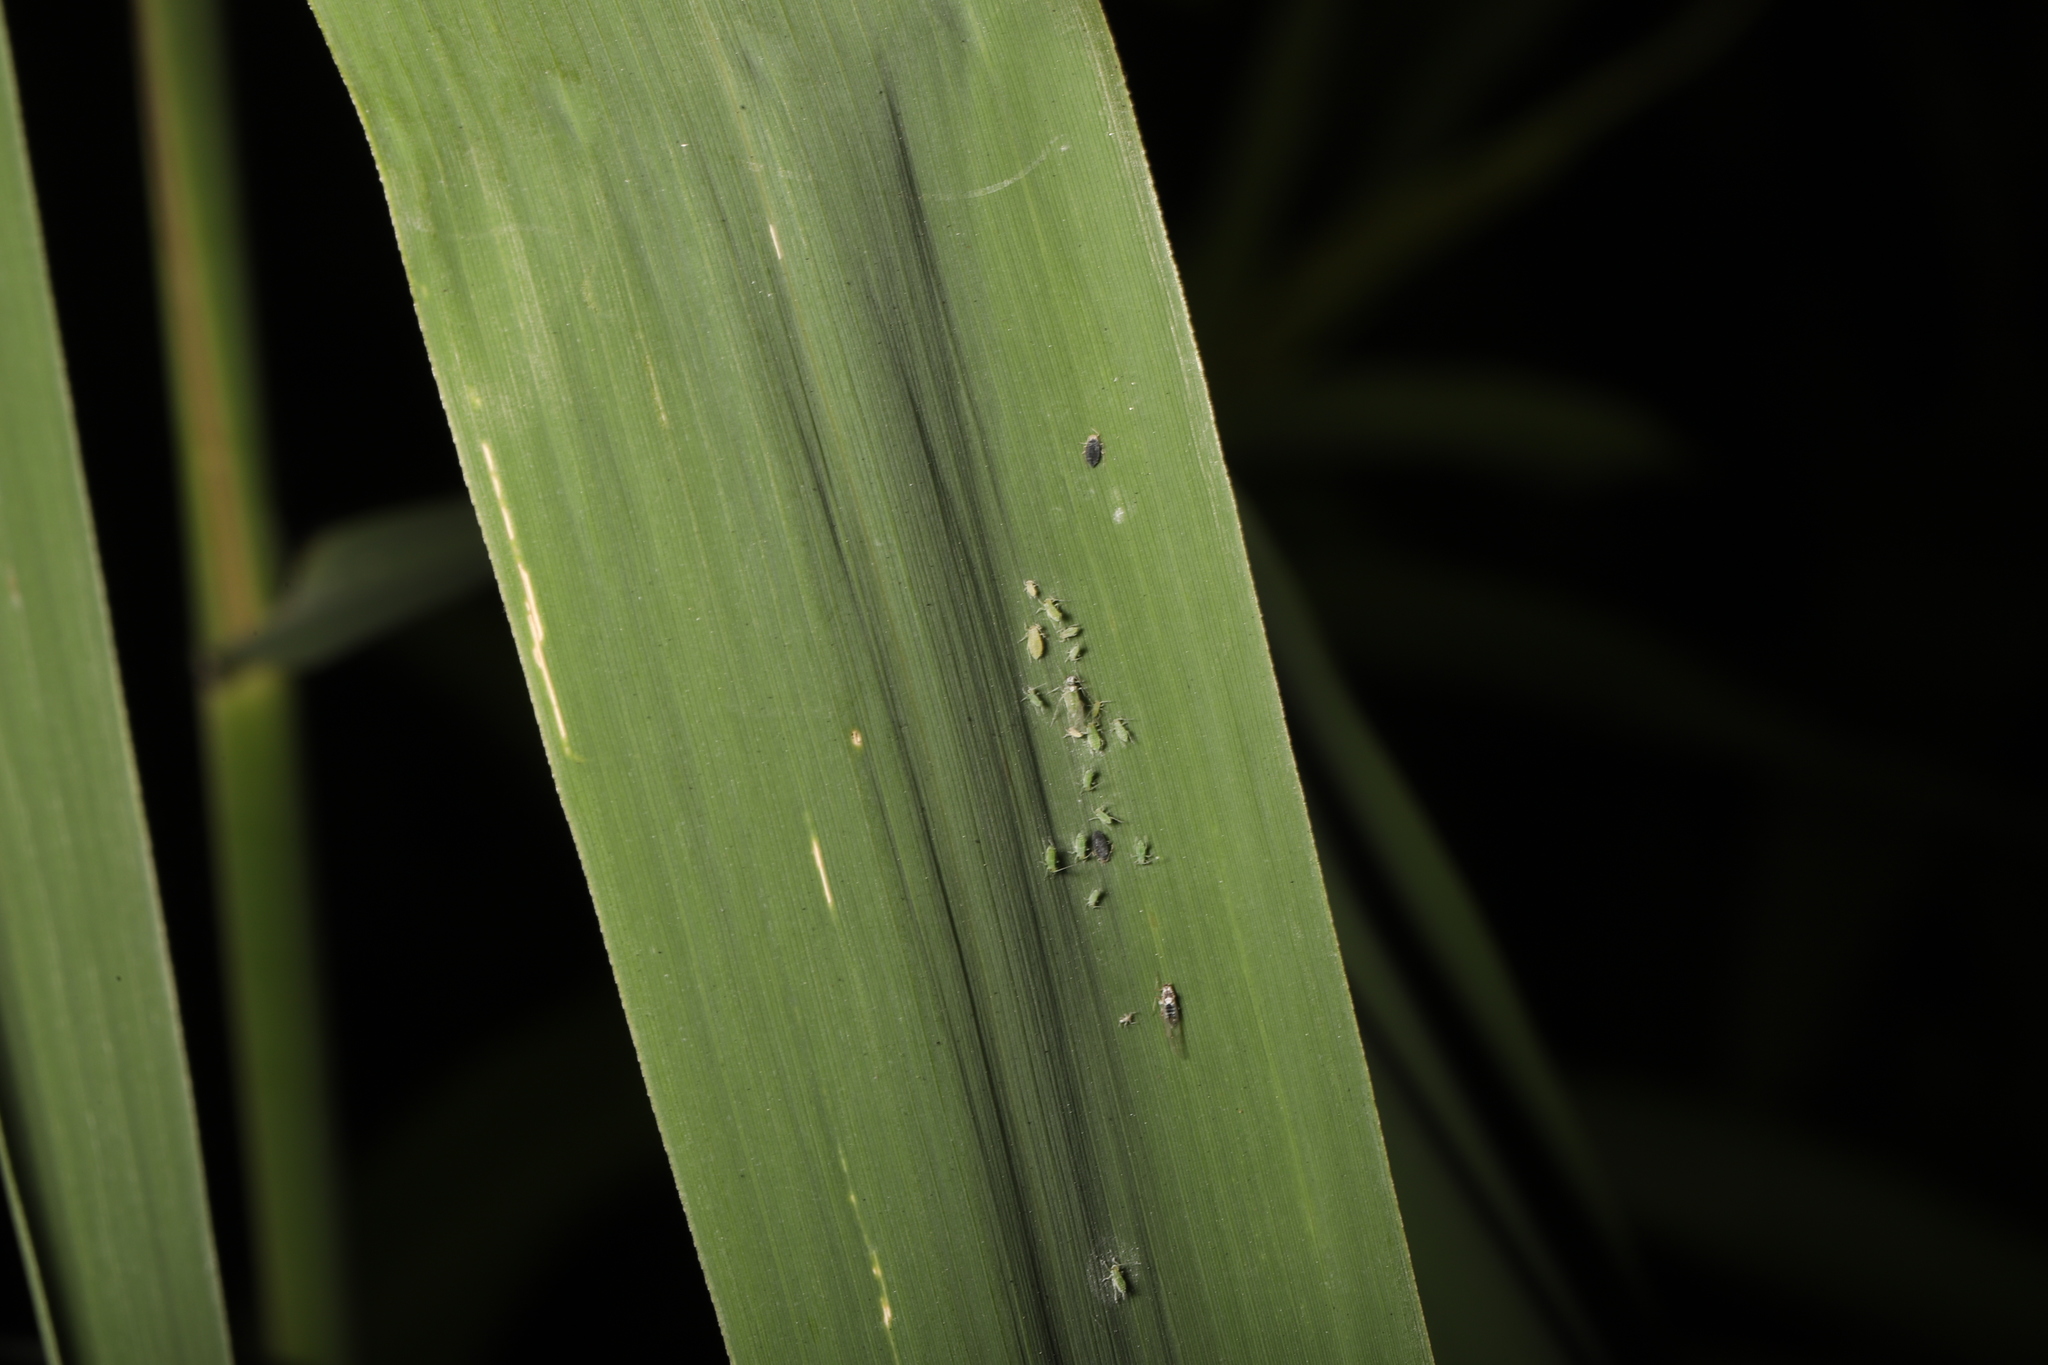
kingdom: Plantae
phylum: Tracheophyta
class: Liliopsida
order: Poales
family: Poaceae
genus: Phragmites
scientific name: Phragmites australis
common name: Common reed
